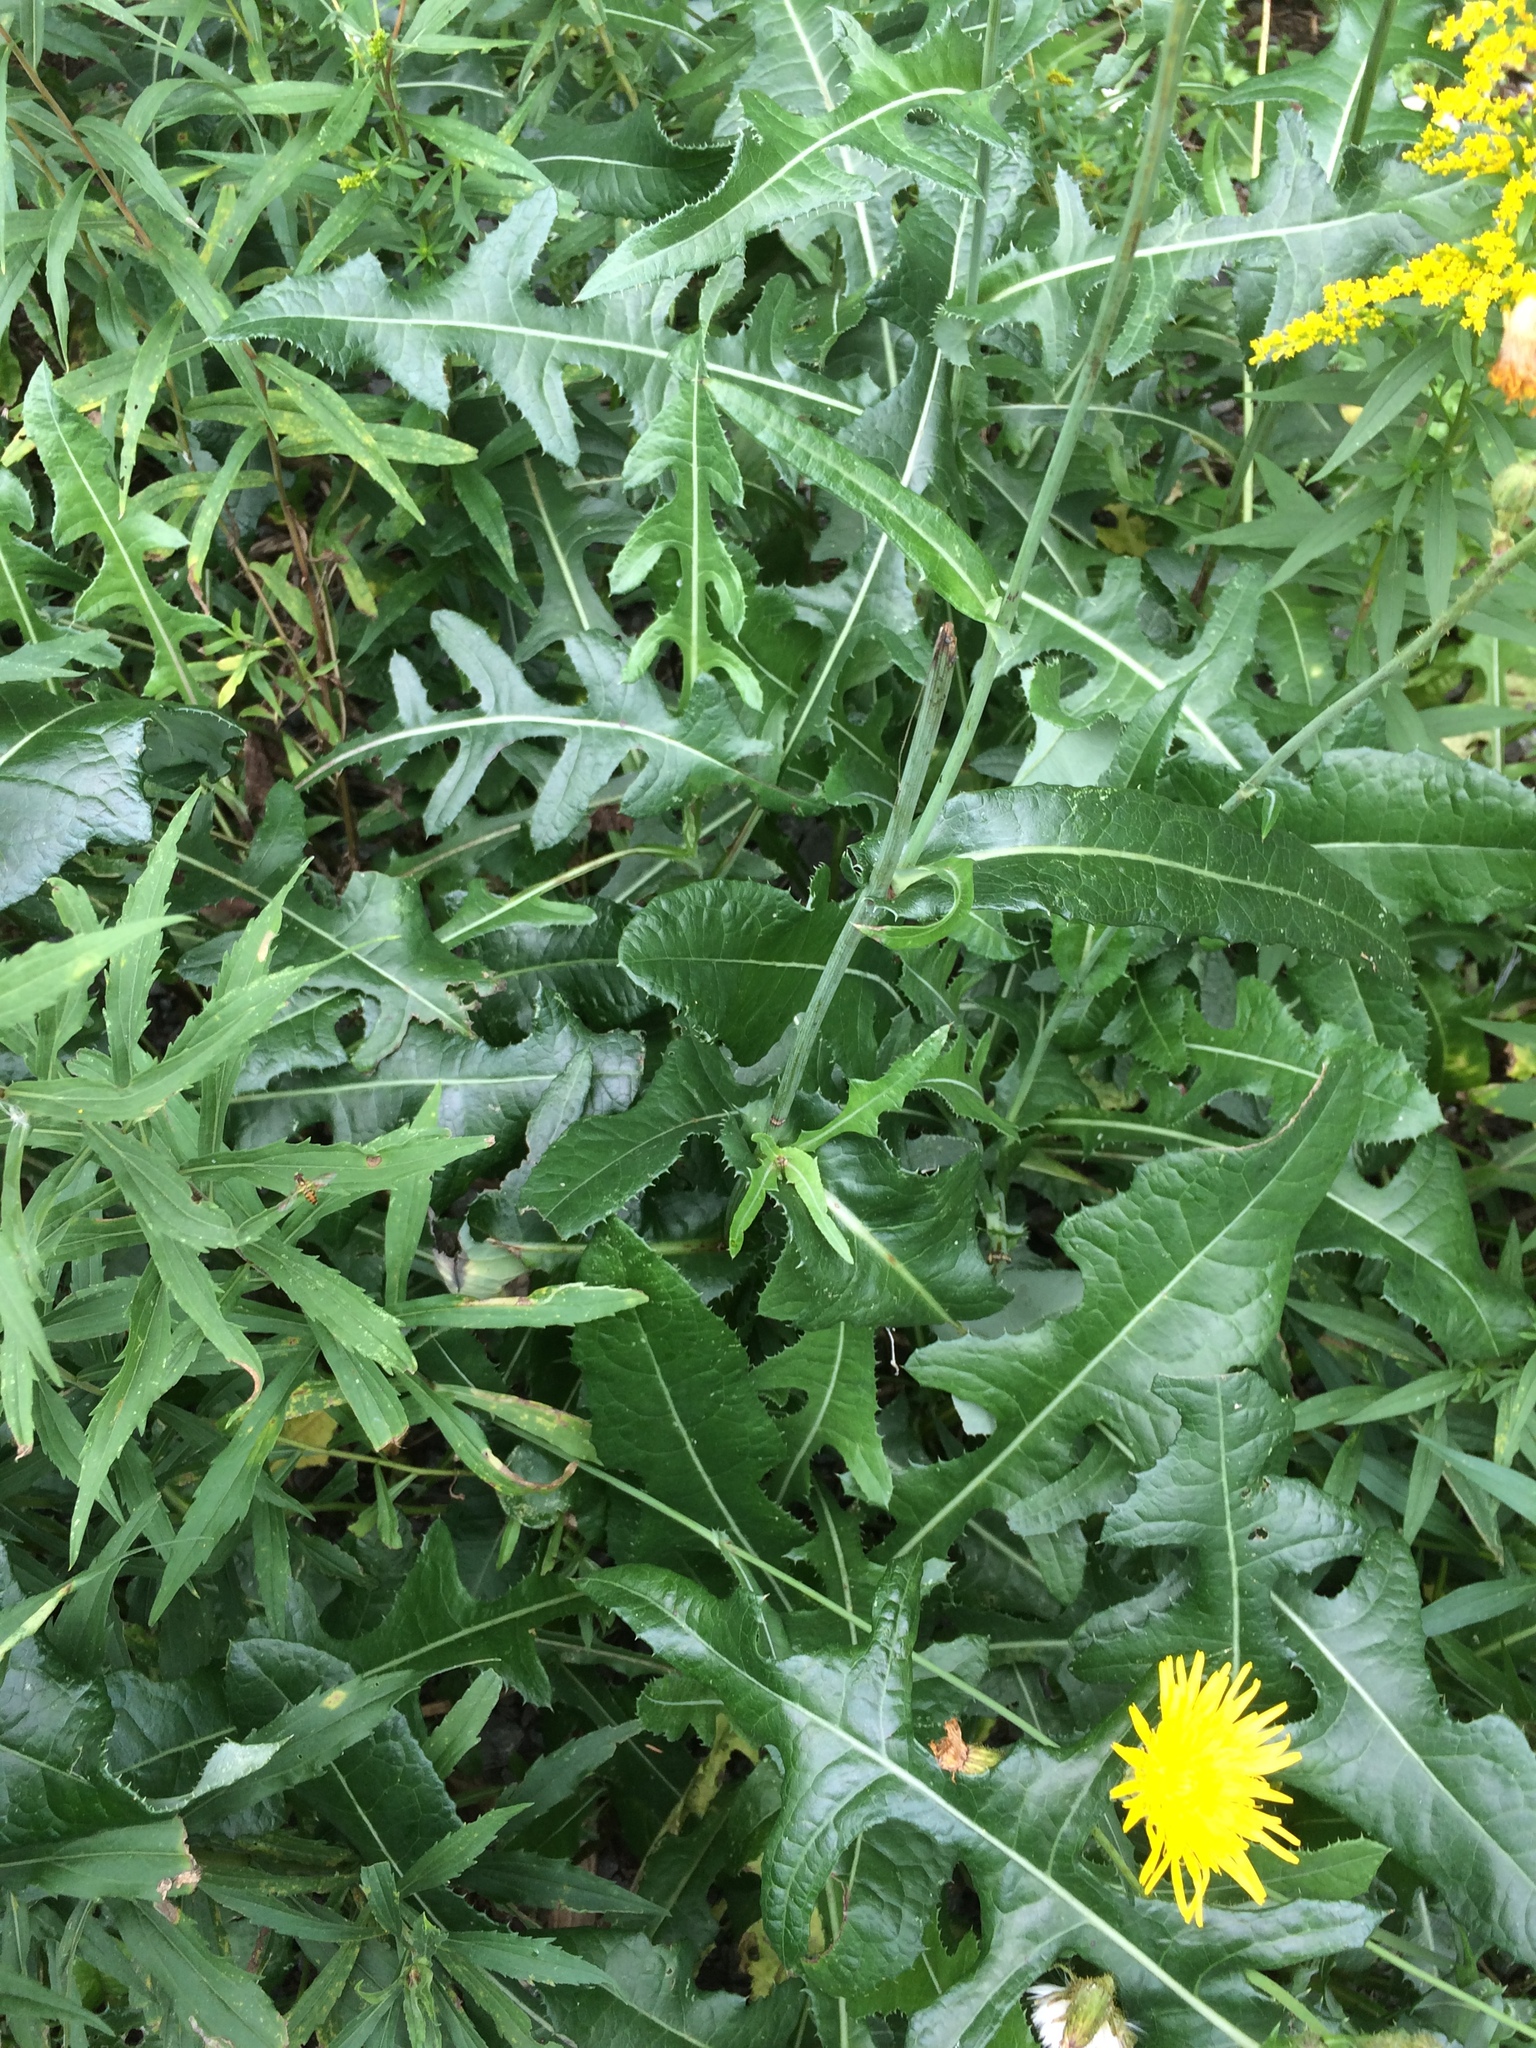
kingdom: Plantae
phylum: Tracheophyta
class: Magnoliopsida
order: Asterales
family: Asteraceae
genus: Sonchus
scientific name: Sonchus arvensis
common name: Perennial sow-thistle
